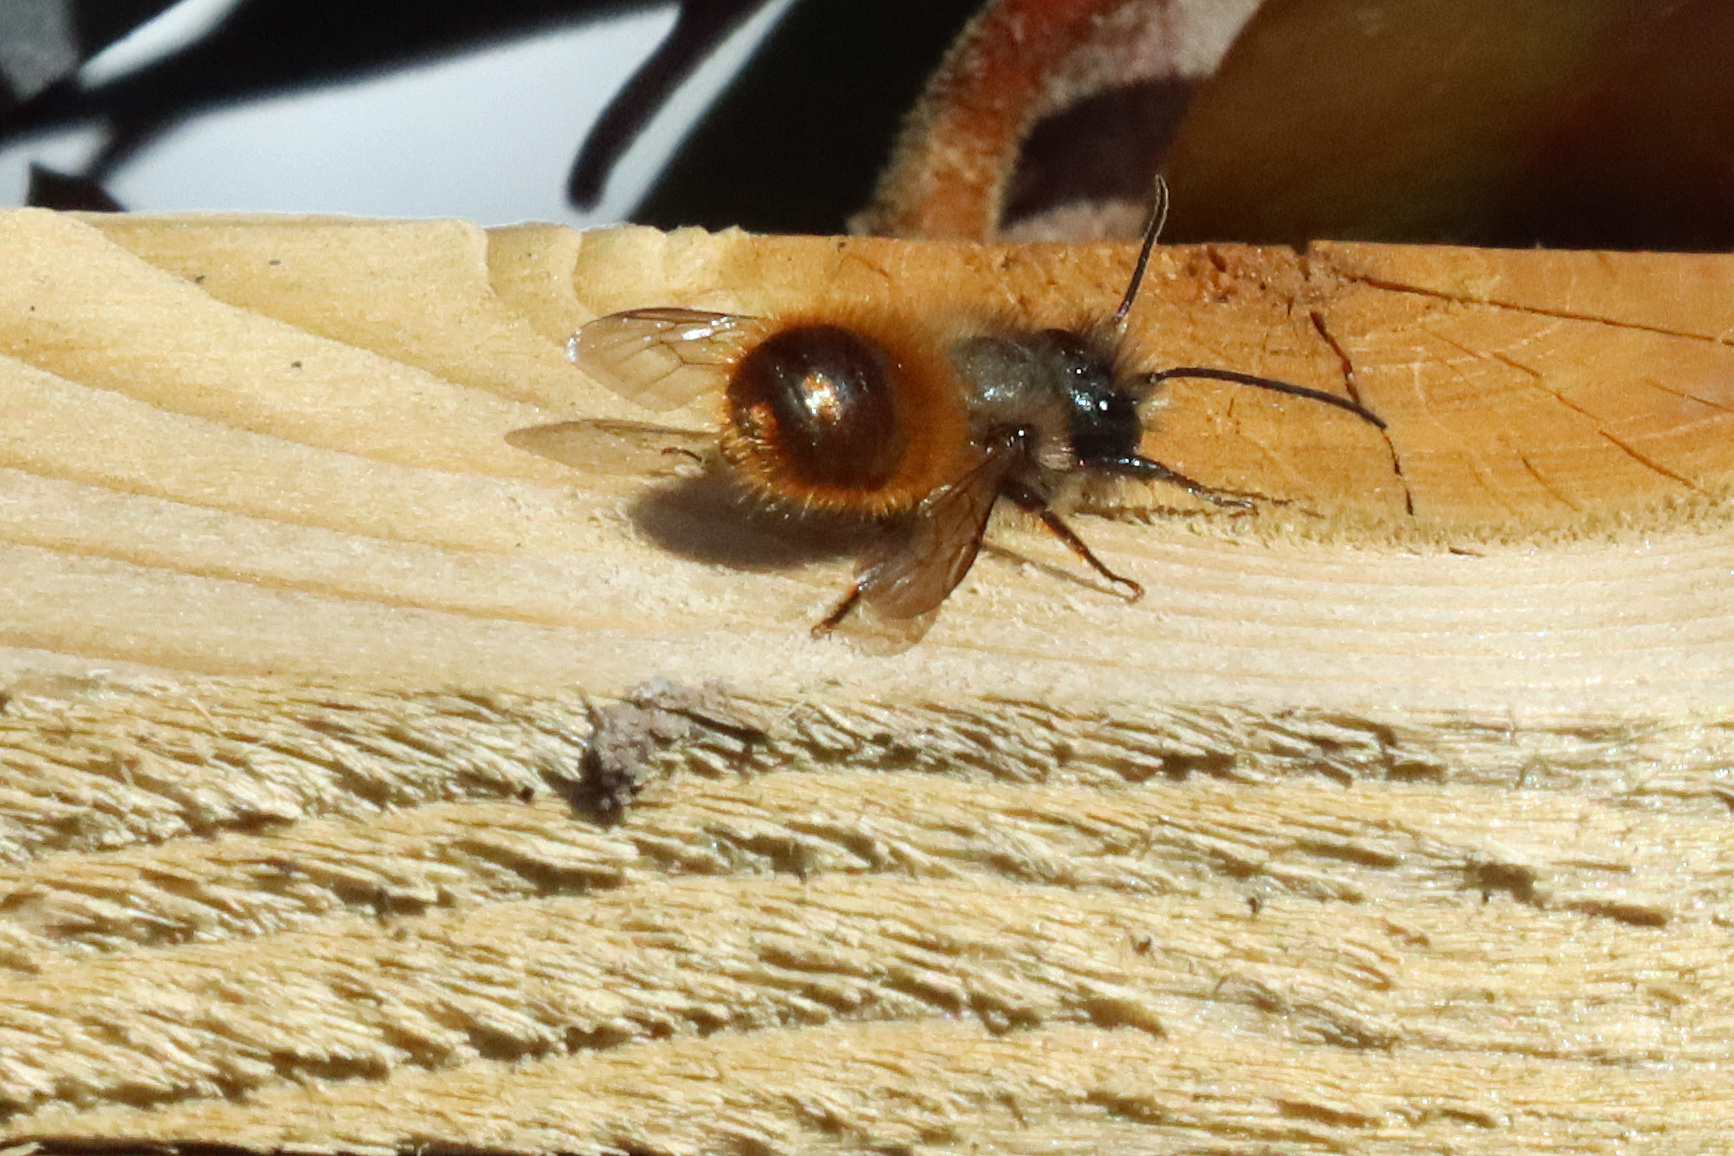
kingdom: Animalia
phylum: Arthropoda
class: Insecta
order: Hymenoptera
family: Megachilidae
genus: Osmia
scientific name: Osmia bicornis
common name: Red mason bee
